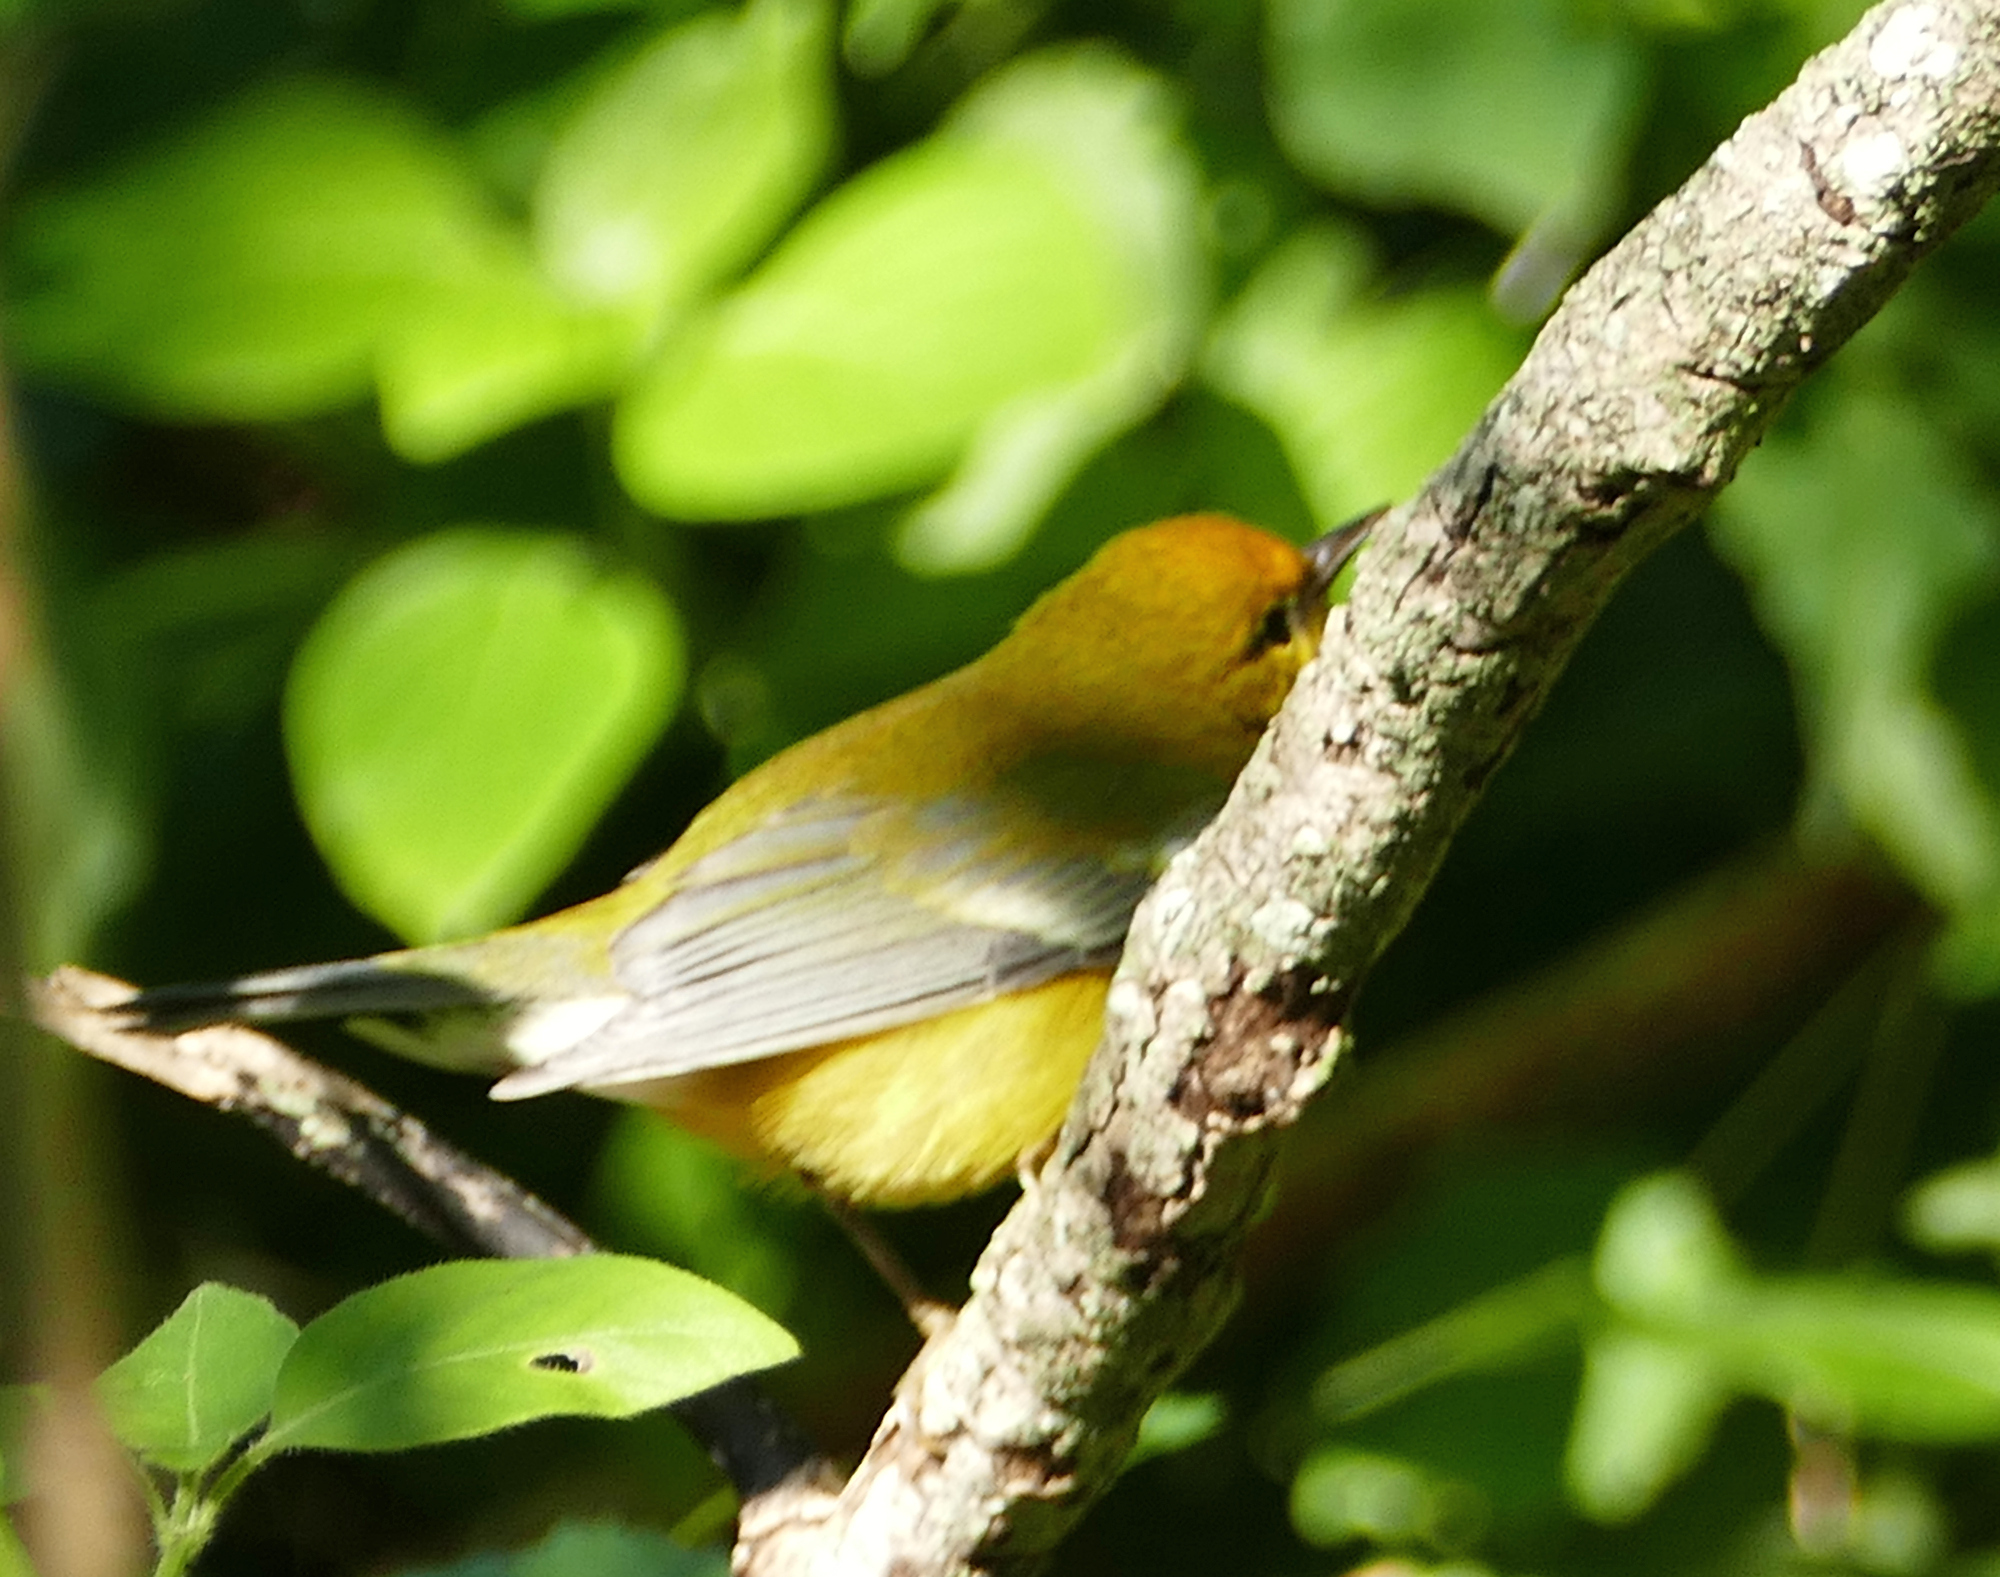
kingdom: Animalia
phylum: Chordata
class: Aves
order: Passeriformes
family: Parulidae
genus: Vermivora
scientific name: Vermivora cyanoptera
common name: Blue-winged warbler
